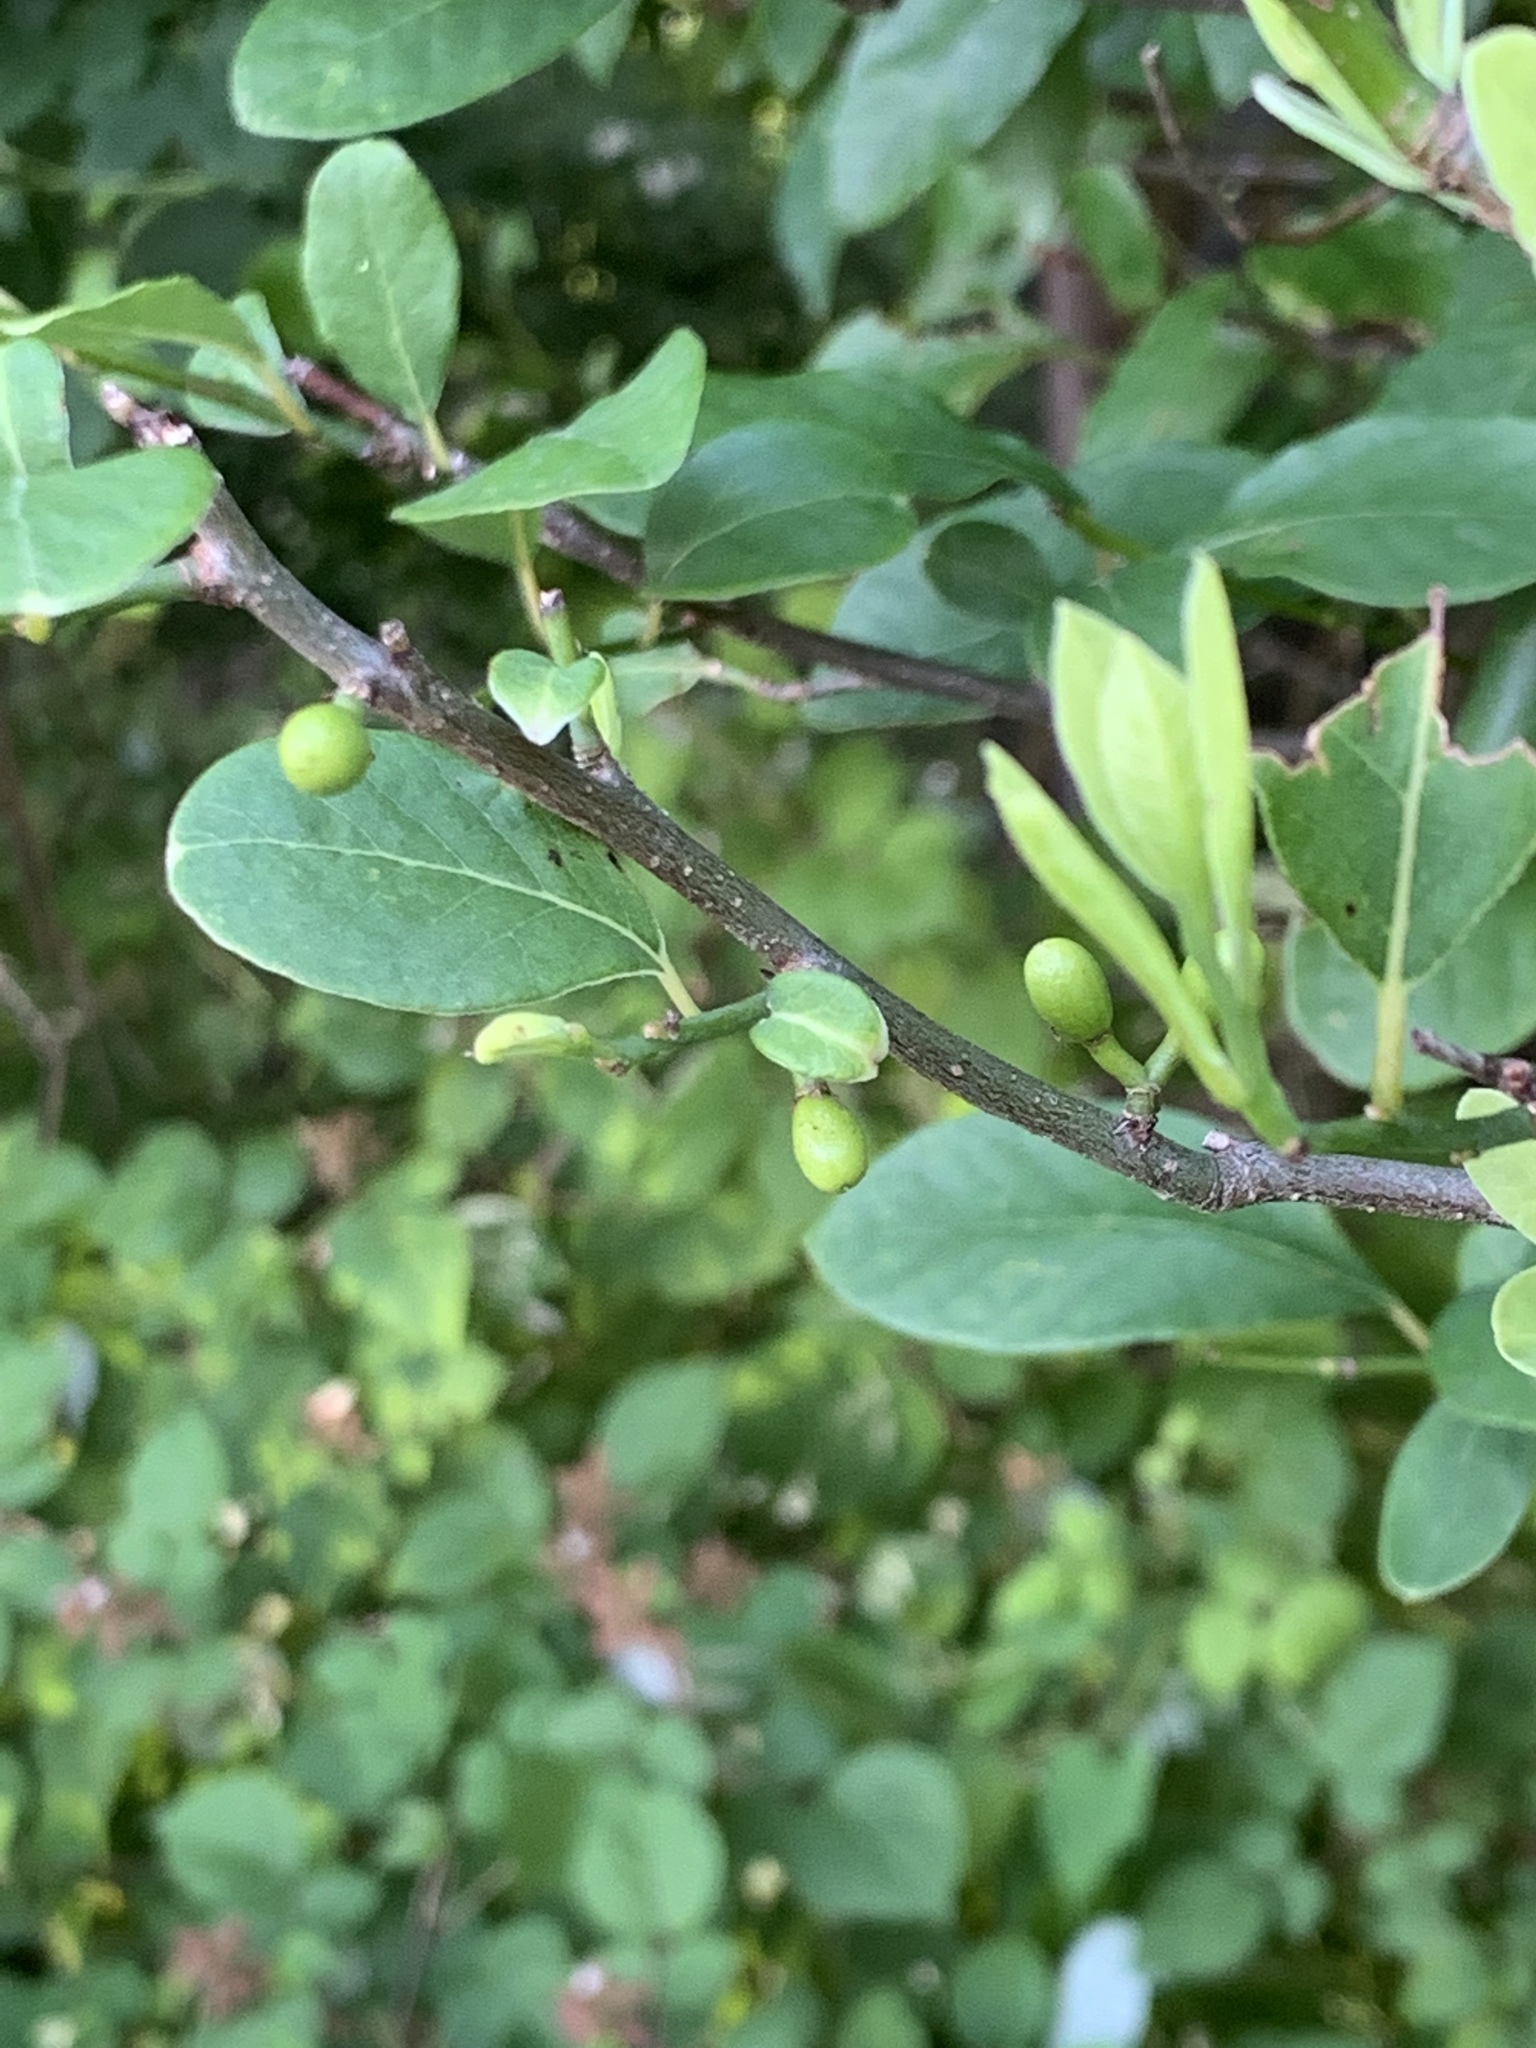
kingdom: Plantae
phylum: Tracheophyta
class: Magnoliopsida
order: Laurales
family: Lauraceae
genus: Lindera
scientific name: Lindera benzoin
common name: Spicebush
